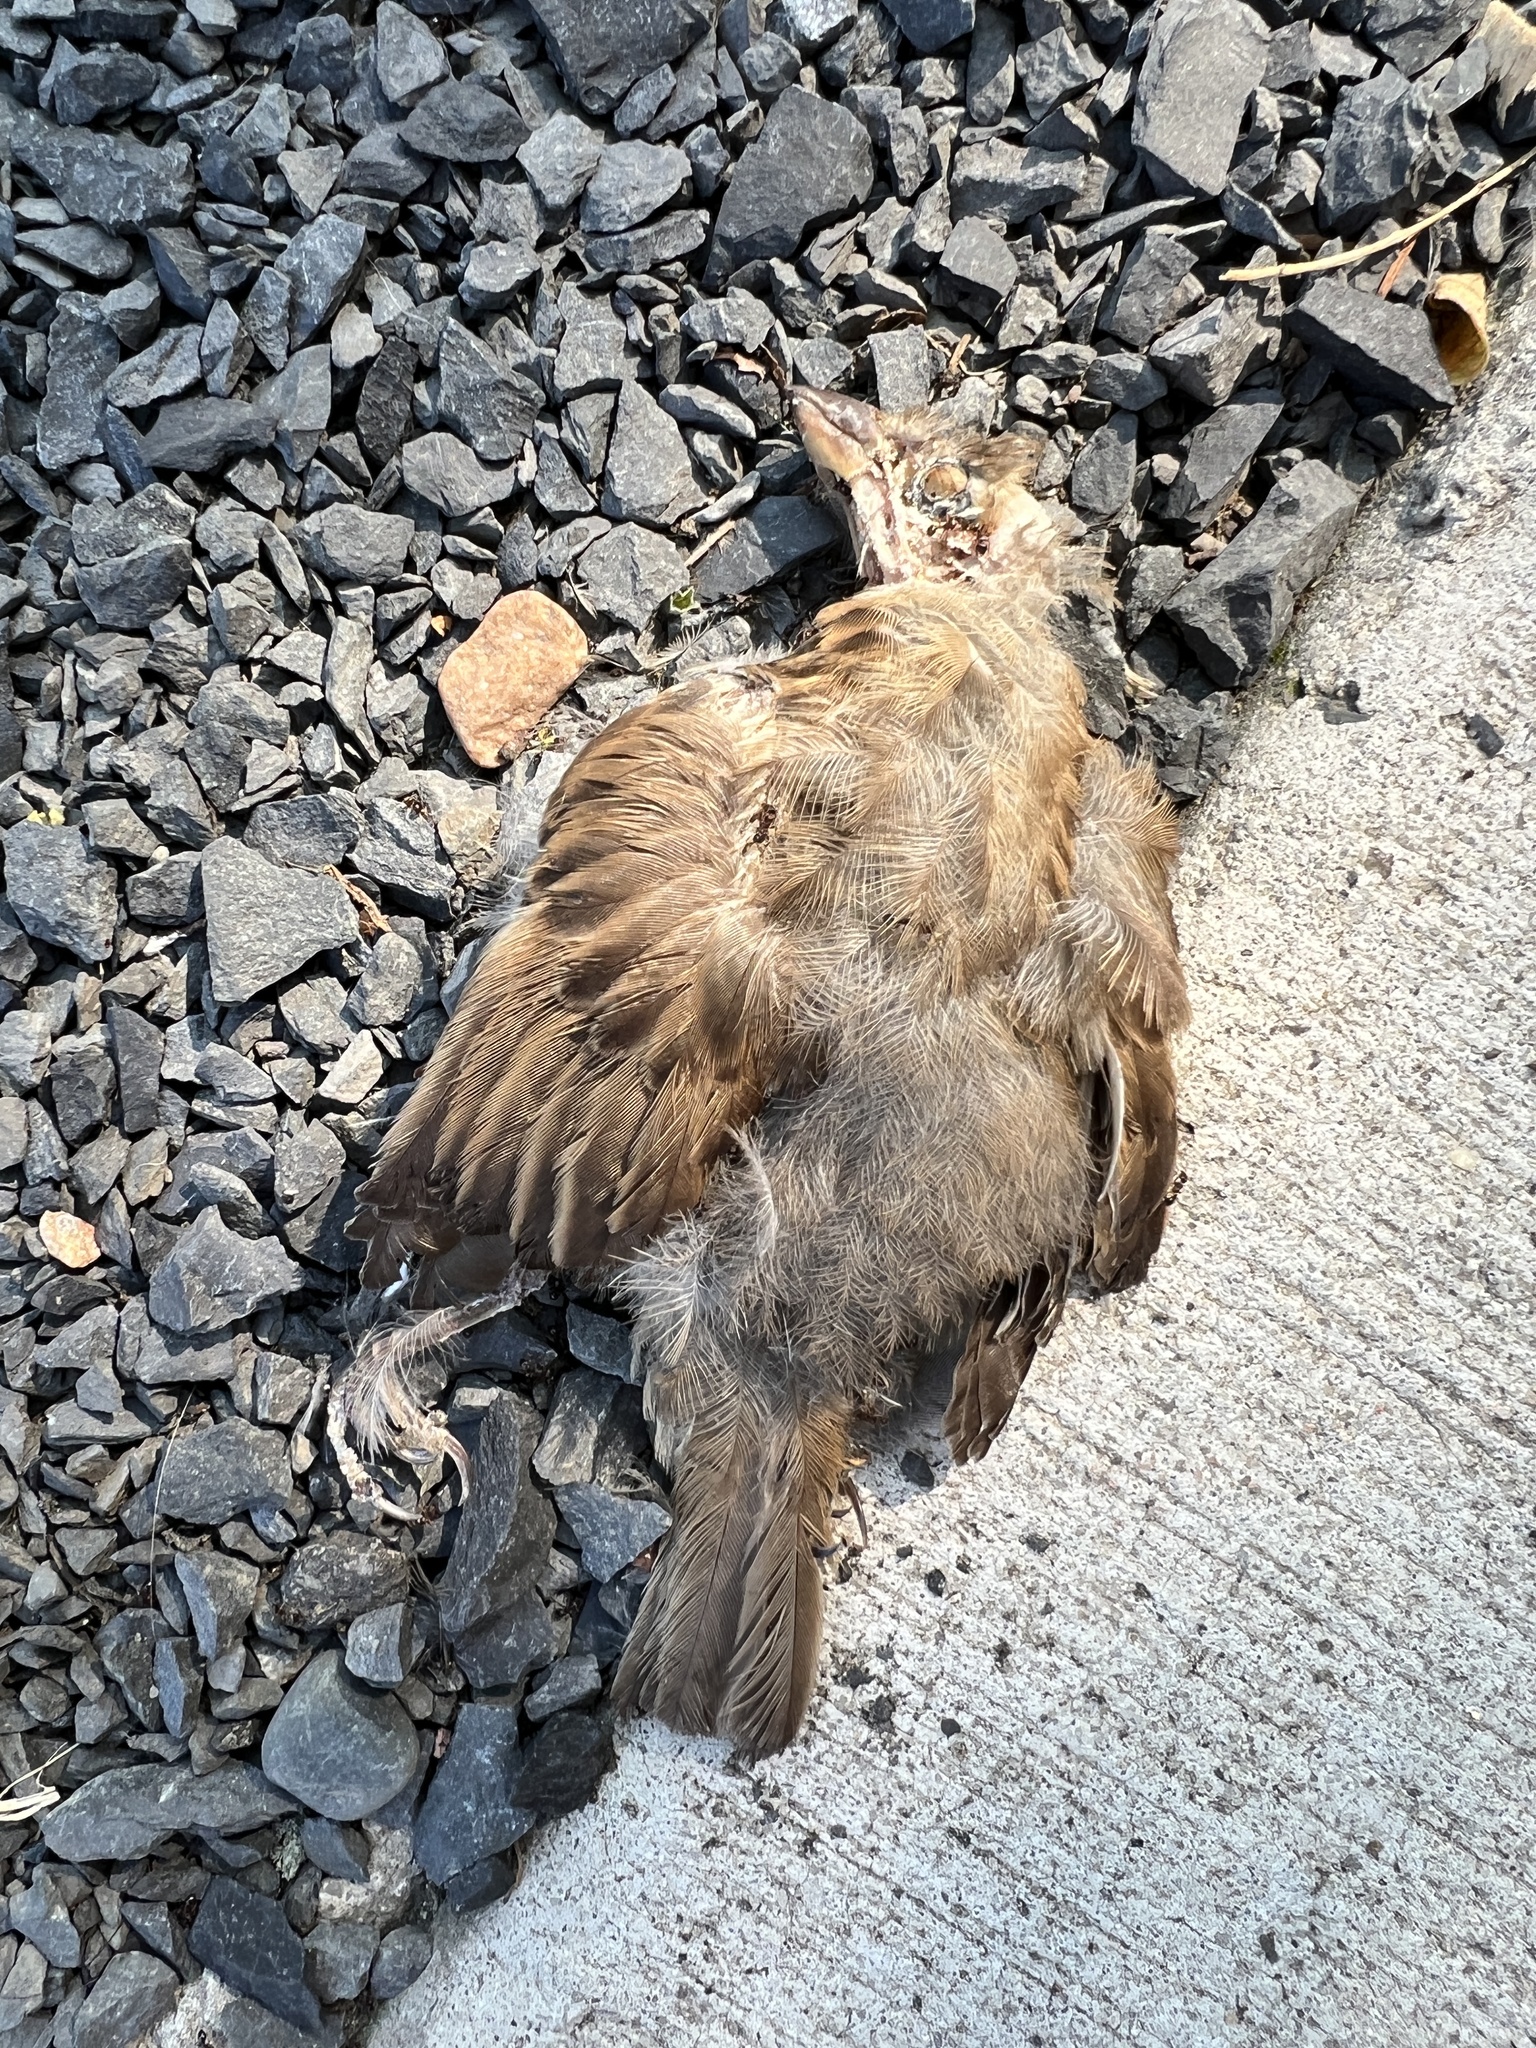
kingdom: Animalia
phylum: Chordata
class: Aves
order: Passeriformes
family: Passeridae
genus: Passer
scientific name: Passer domesticus
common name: House sparrow
